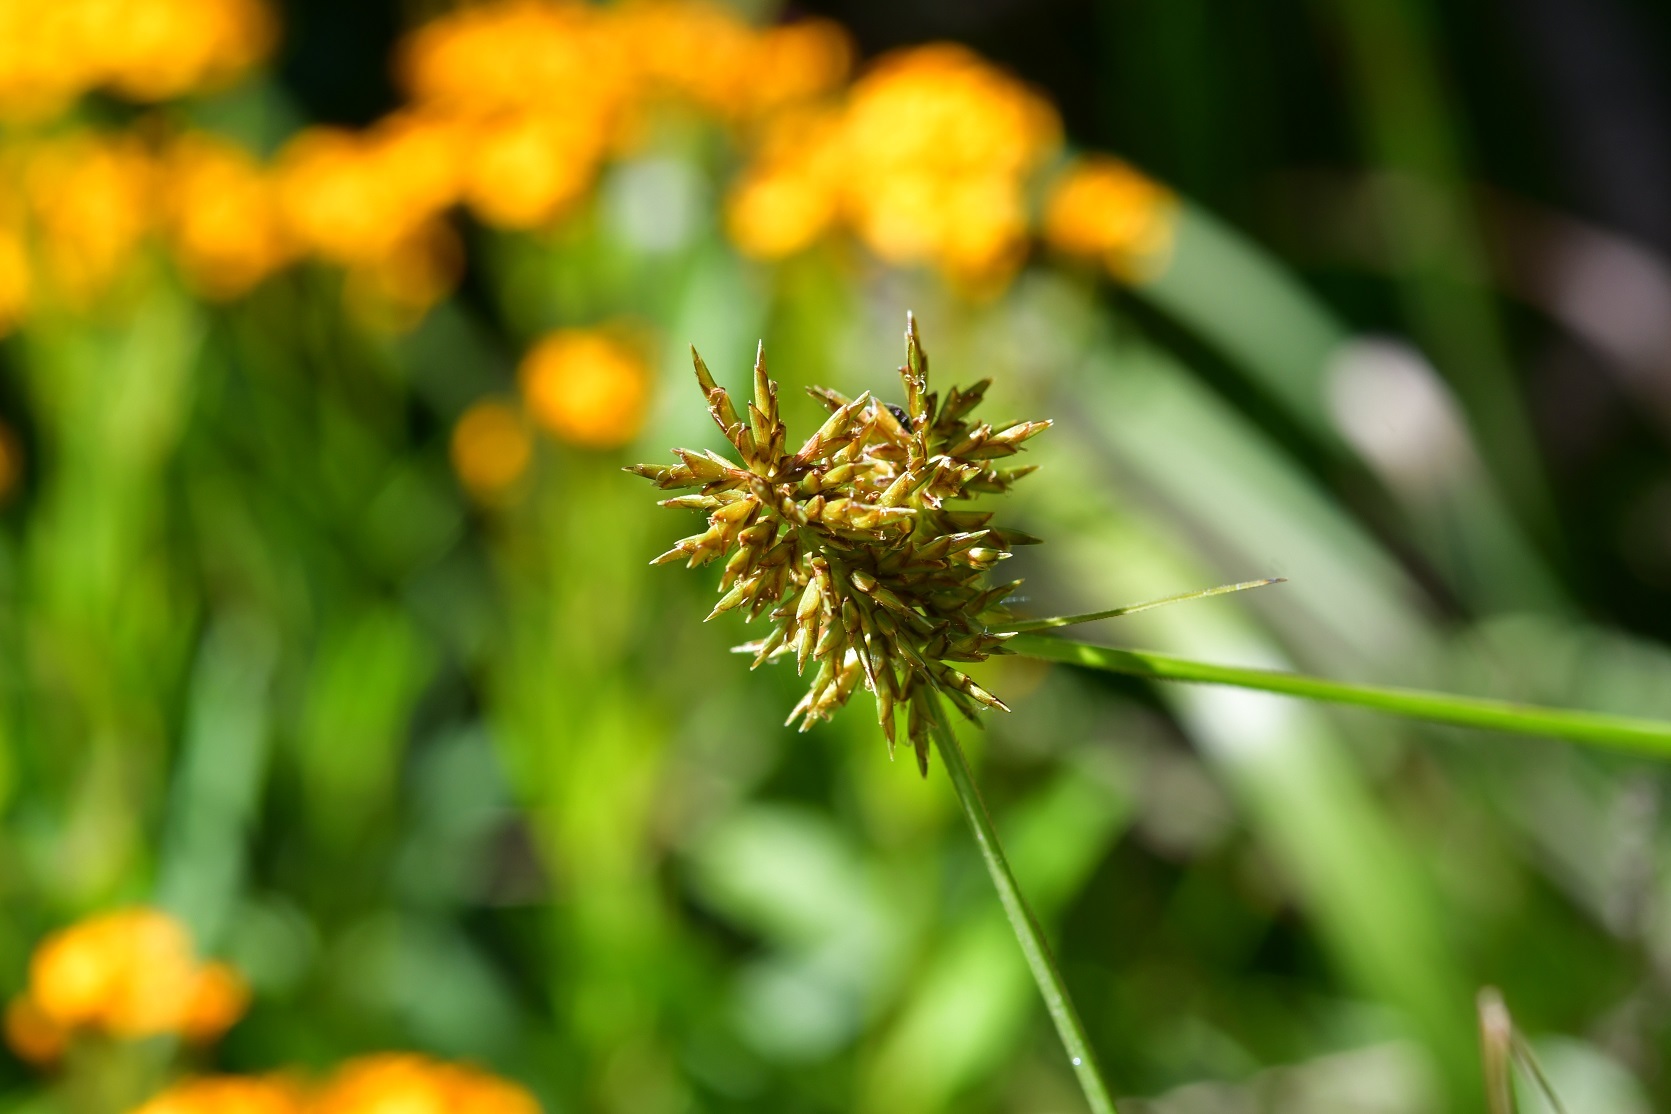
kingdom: Plantae
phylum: Tracheophyta
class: Liliopsida
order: Poales
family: Cyperaceae
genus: Cyperus
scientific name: Cyperus manimae
